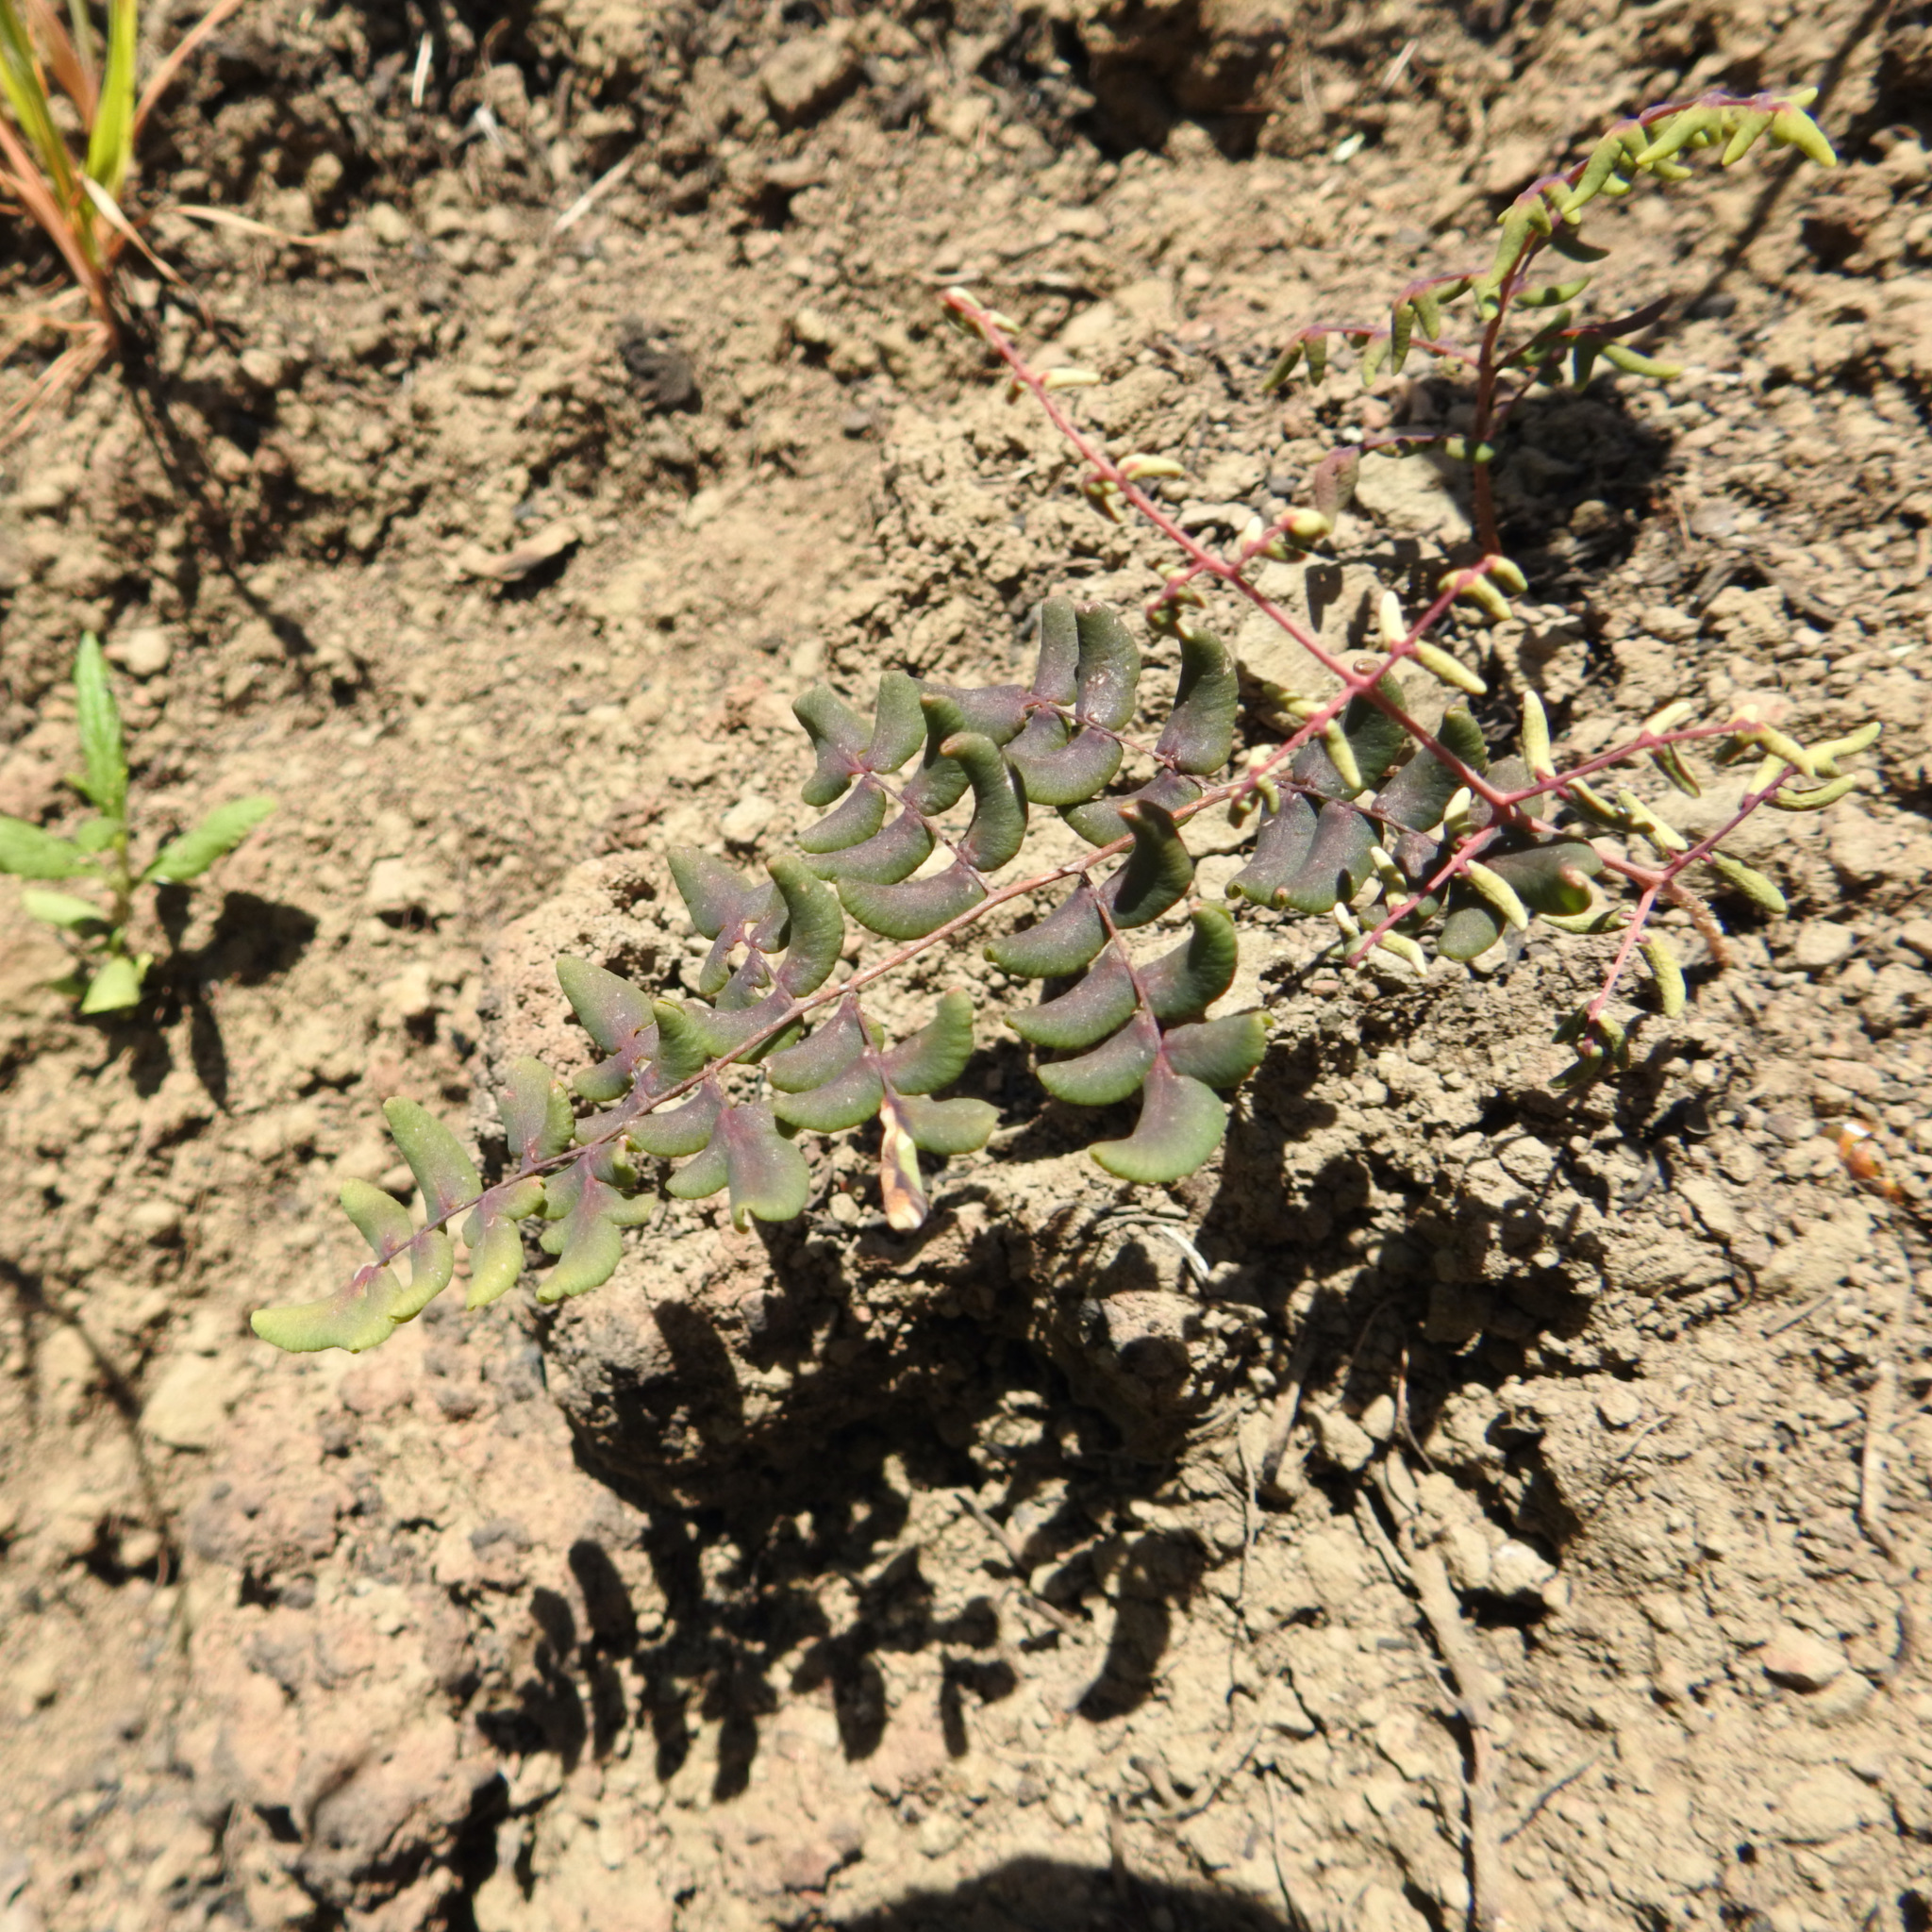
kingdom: Plantae
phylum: Tracheophyta
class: Polypodiopsida
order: Polypodiales
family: Pteridaceae
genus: Pellaea
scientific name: Pellaea andromedifolia
